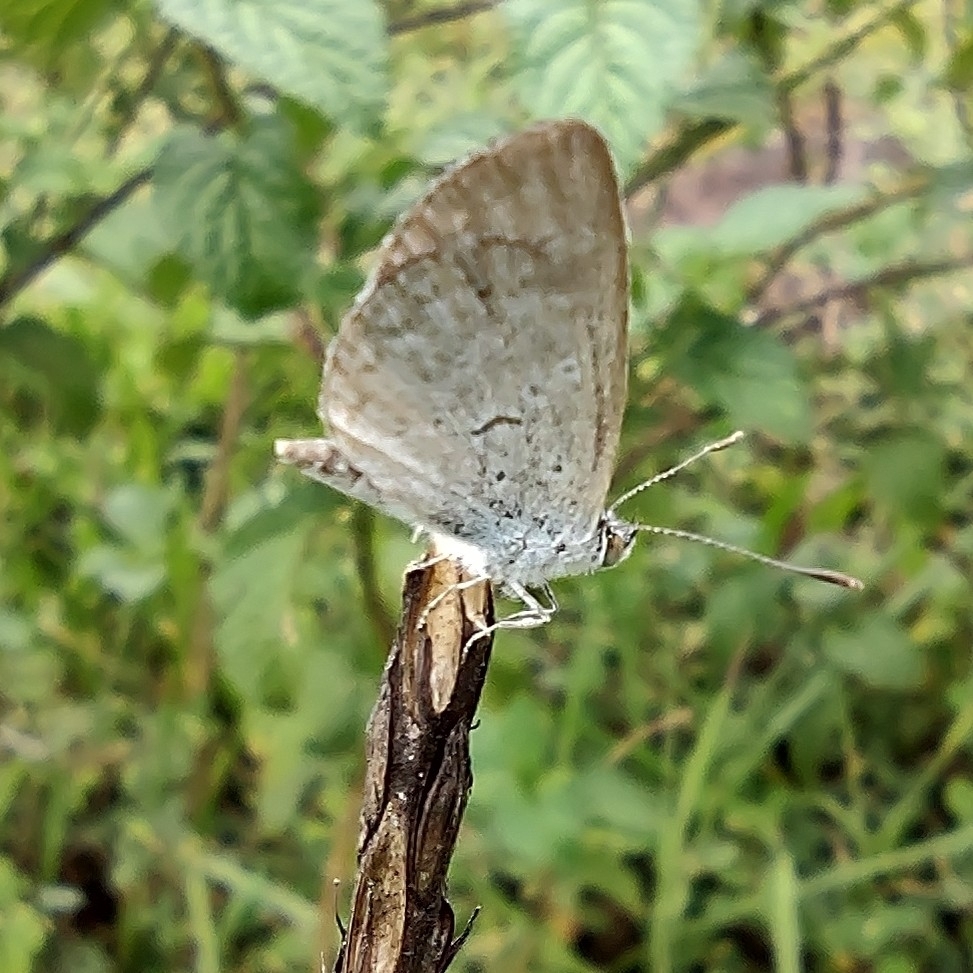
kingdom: Animalia
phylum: Arthropoda
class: Insecta
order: Lepidoptera
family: Lycaenidae
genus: Zizina
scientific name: Zizina otis
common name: Lesser grass blue
